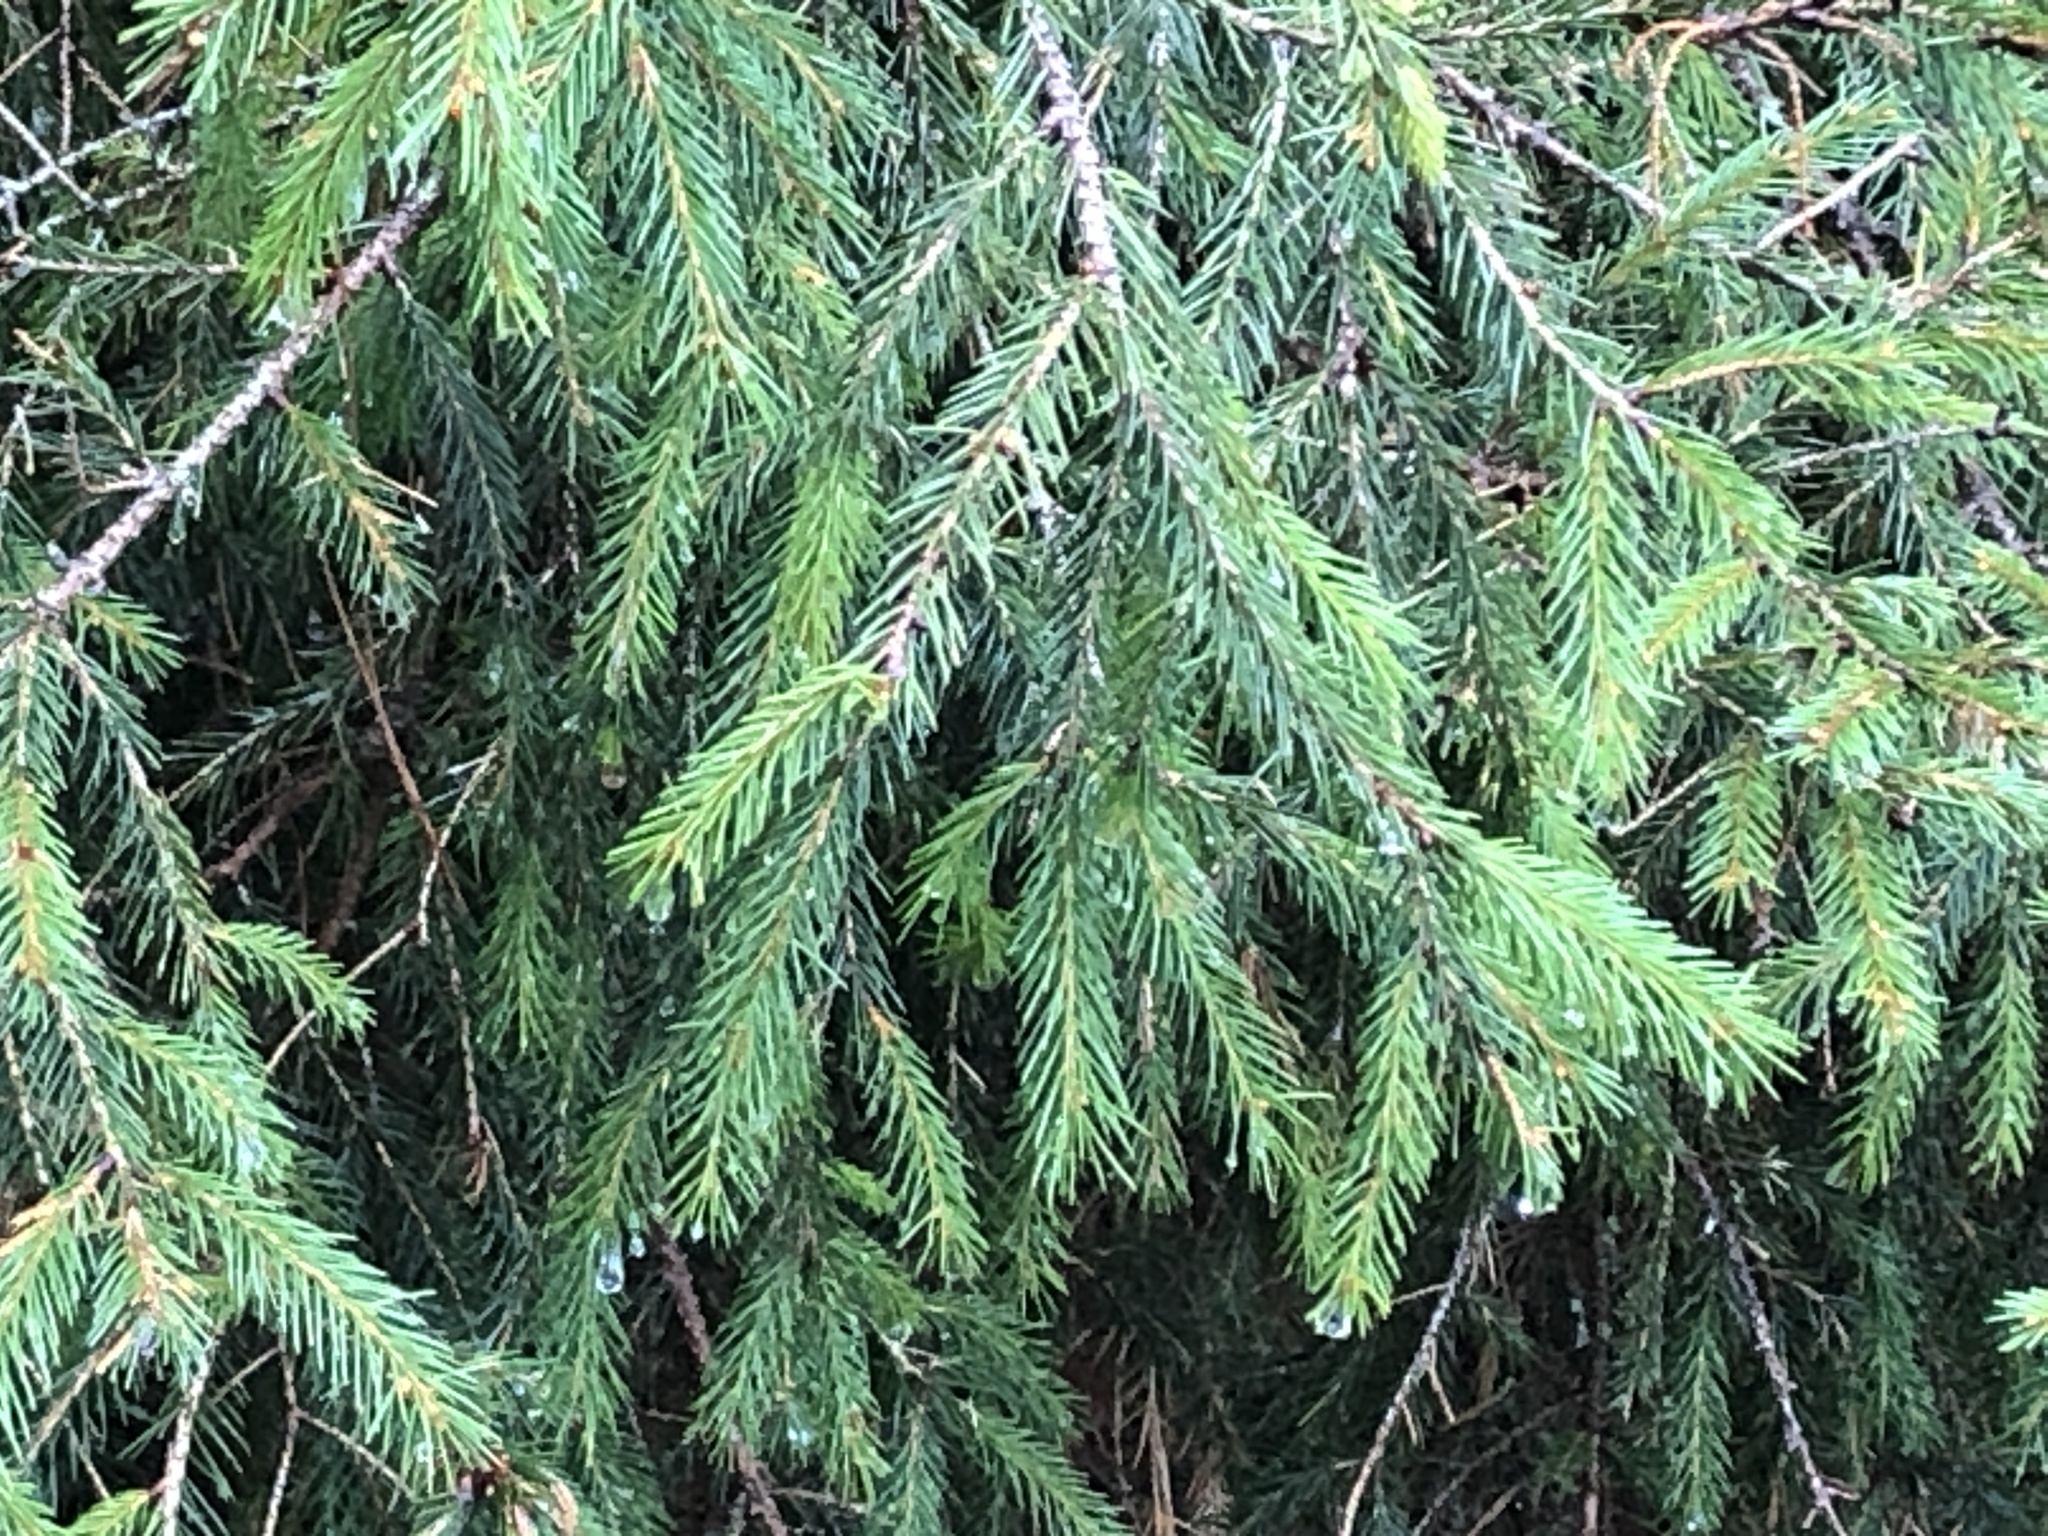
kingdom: Plantae
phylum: Tracheophyta
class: Pinopsida
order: Pinales
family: Pinaceae
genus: Picea
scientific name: Picea morrisonicola
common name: Mount morrison spruce
